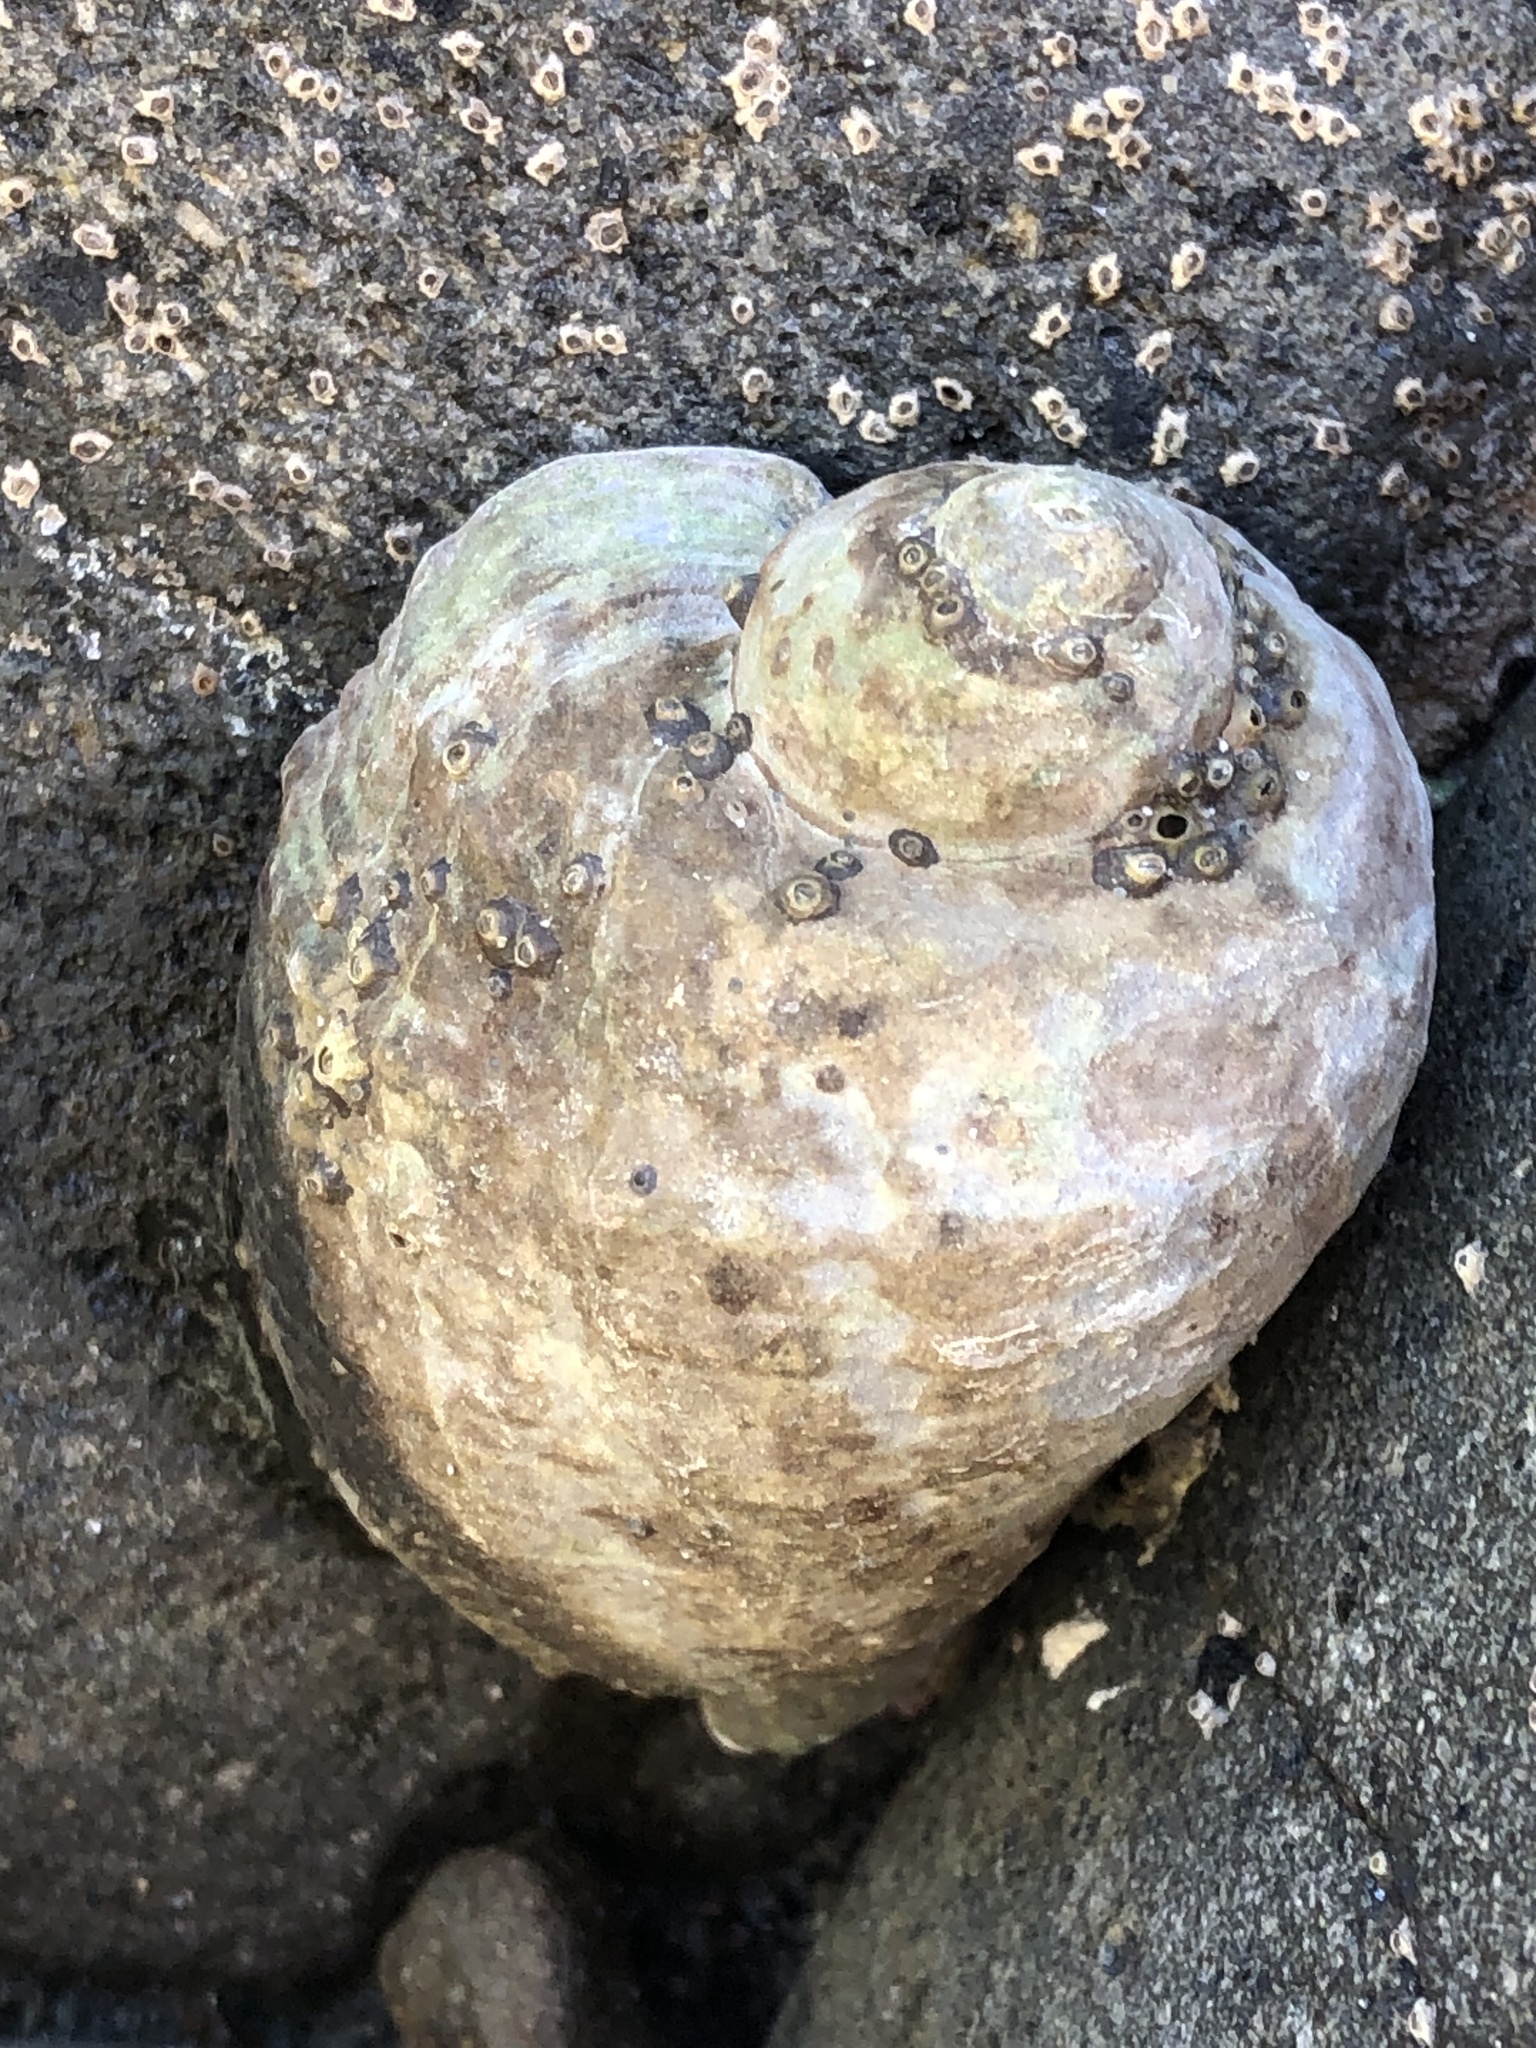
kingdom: Animalia
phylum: Mollusca
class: Gastropoda
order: Neogastropoda
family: Muricidae
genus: Haustrum
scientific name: Haustrum haustorium
